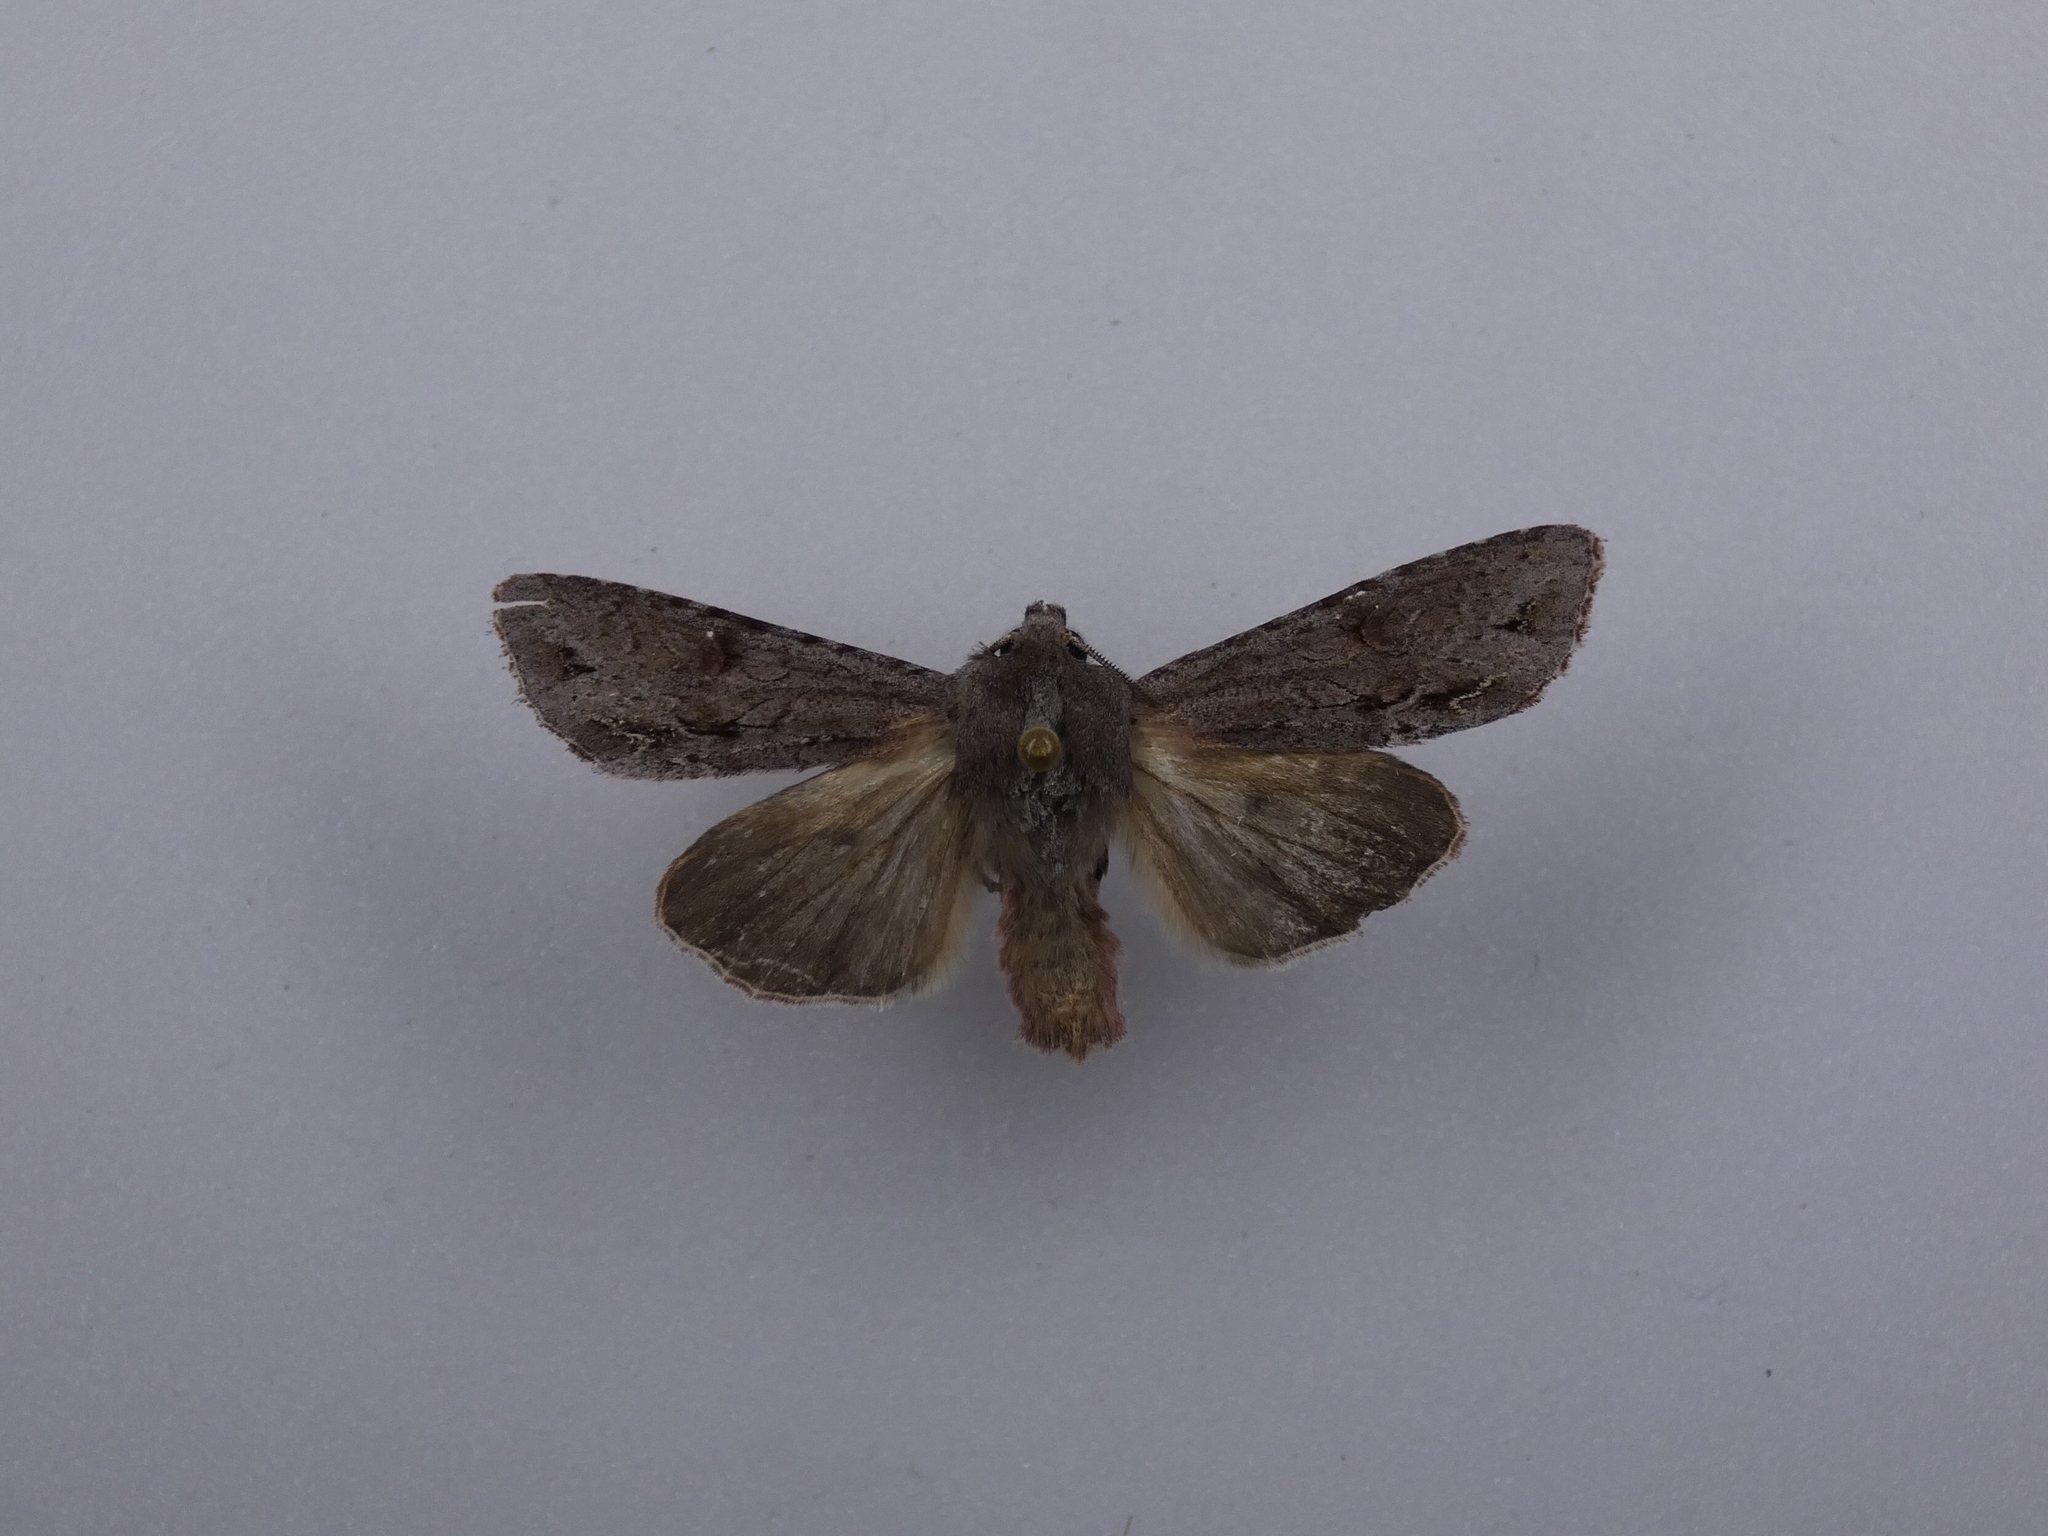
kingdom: Animalia
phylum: Arthropoda
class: Insecta
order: Lepidoptera
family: Noctuidae
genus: Ichneutica
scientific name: Ichneutica
